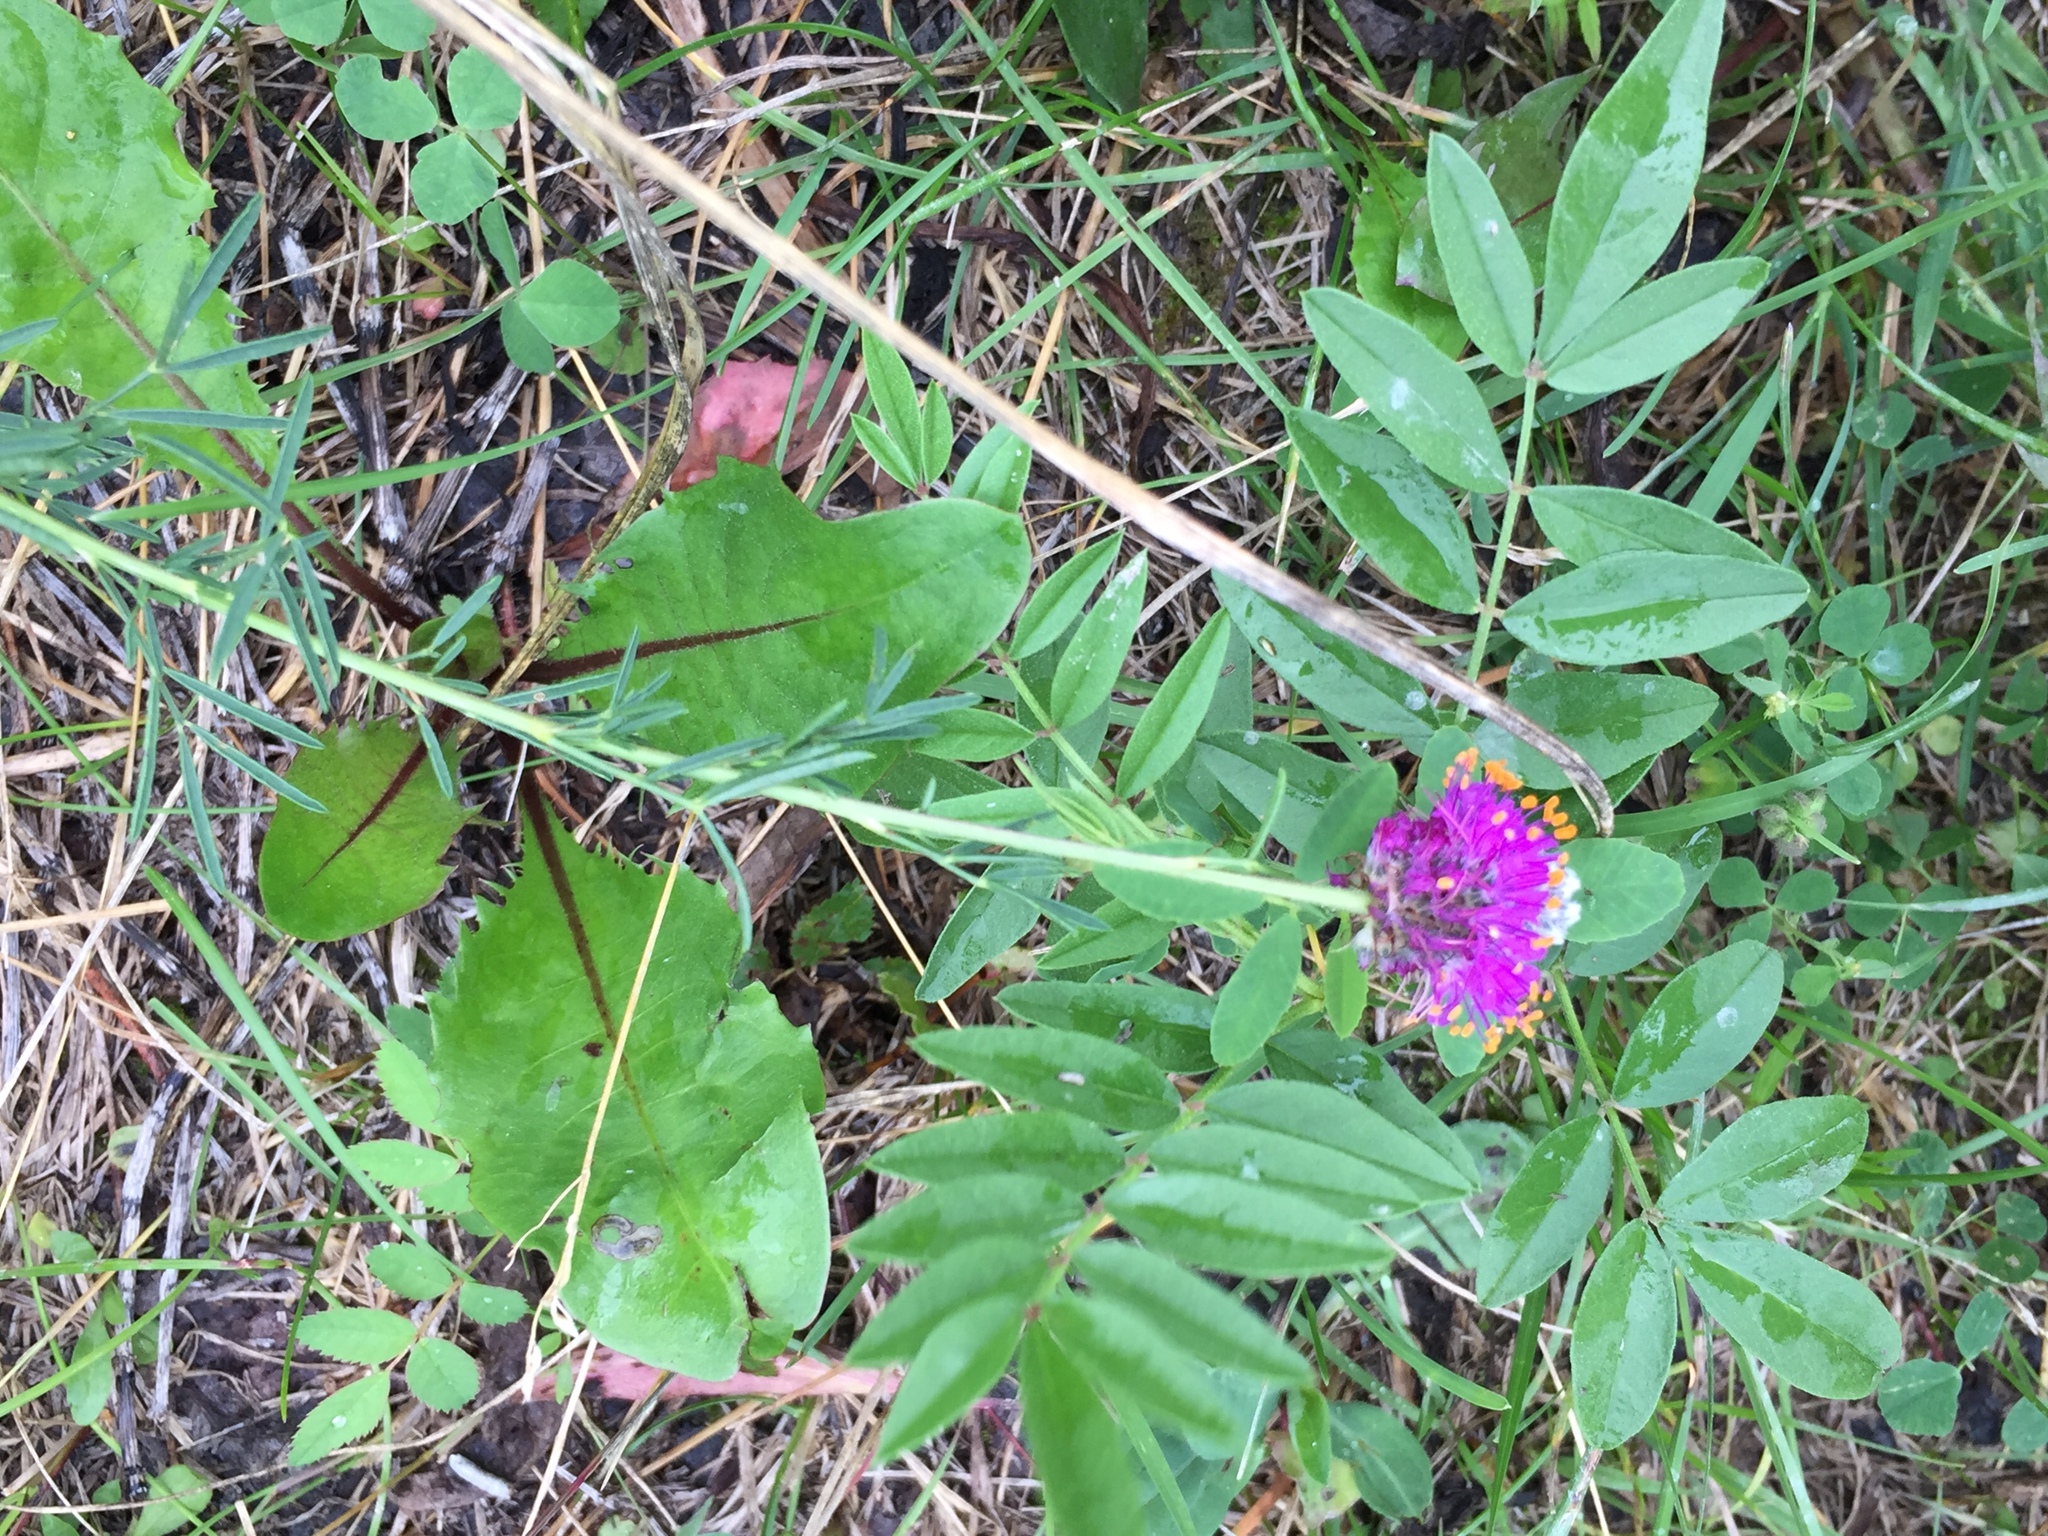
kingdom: Plantae
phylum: Tracheophyta
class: Magnoliopsida
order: Fabales
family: Fabaceae
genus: Dalea
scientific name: Dalea purpurea
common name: Purple prairie-clover
